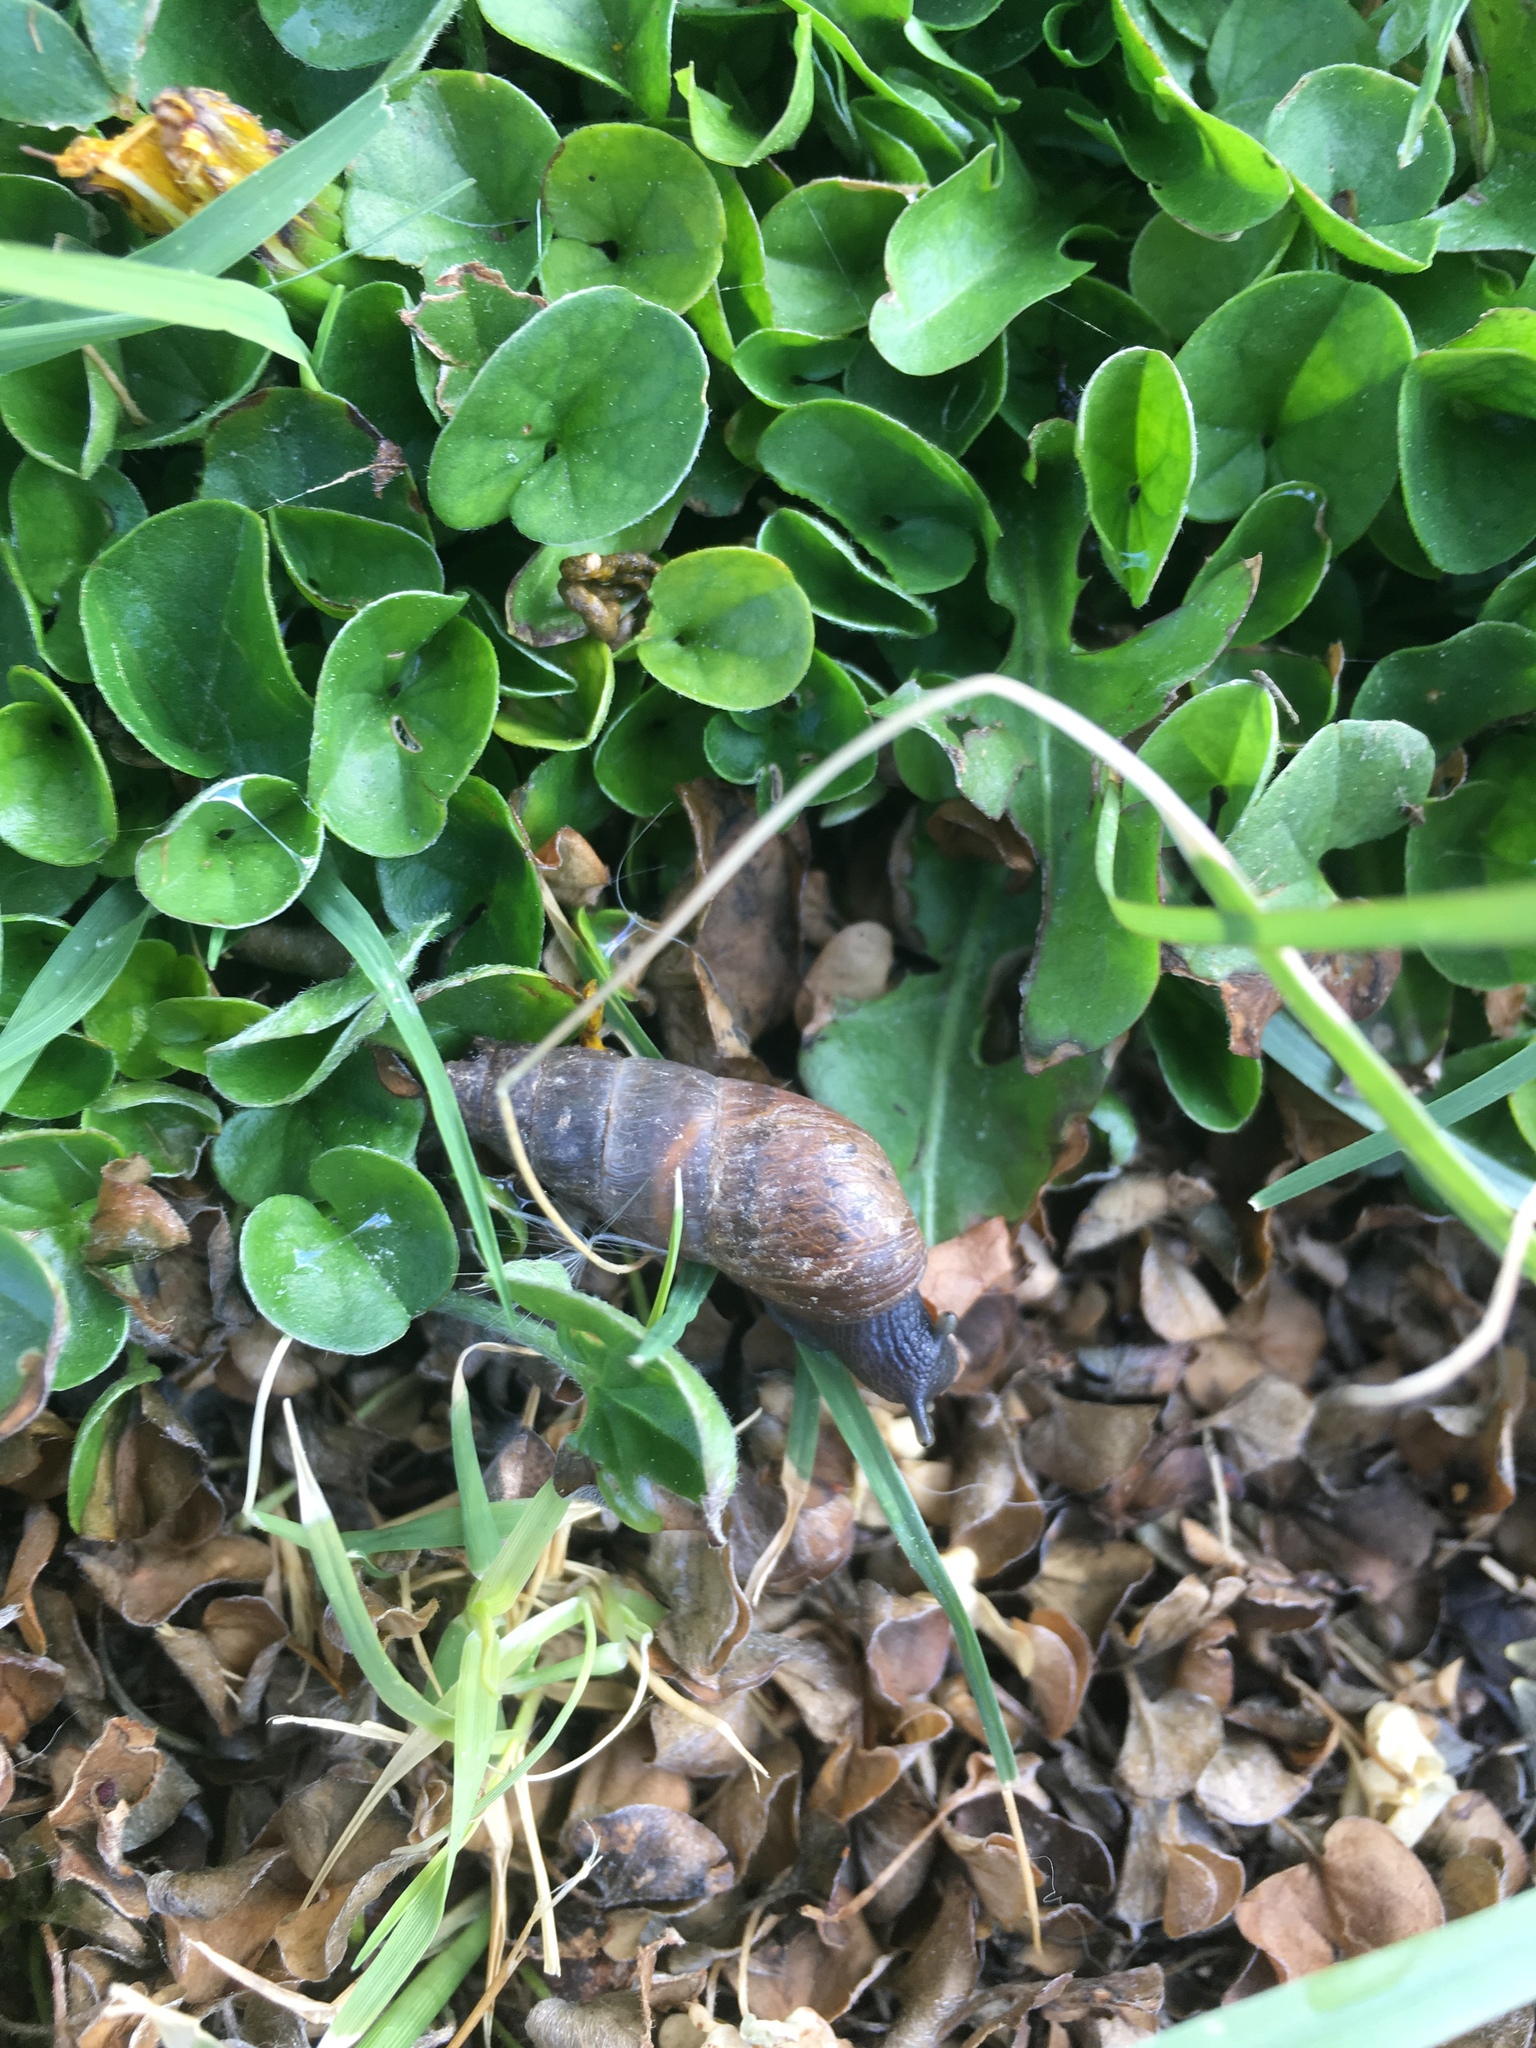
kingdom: Animalia
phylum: Mollusca
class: Gastropoda
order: Stylommatophora
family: Achatinidae
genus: Rumina
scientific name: Rumina decollata
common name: Decollate snail
